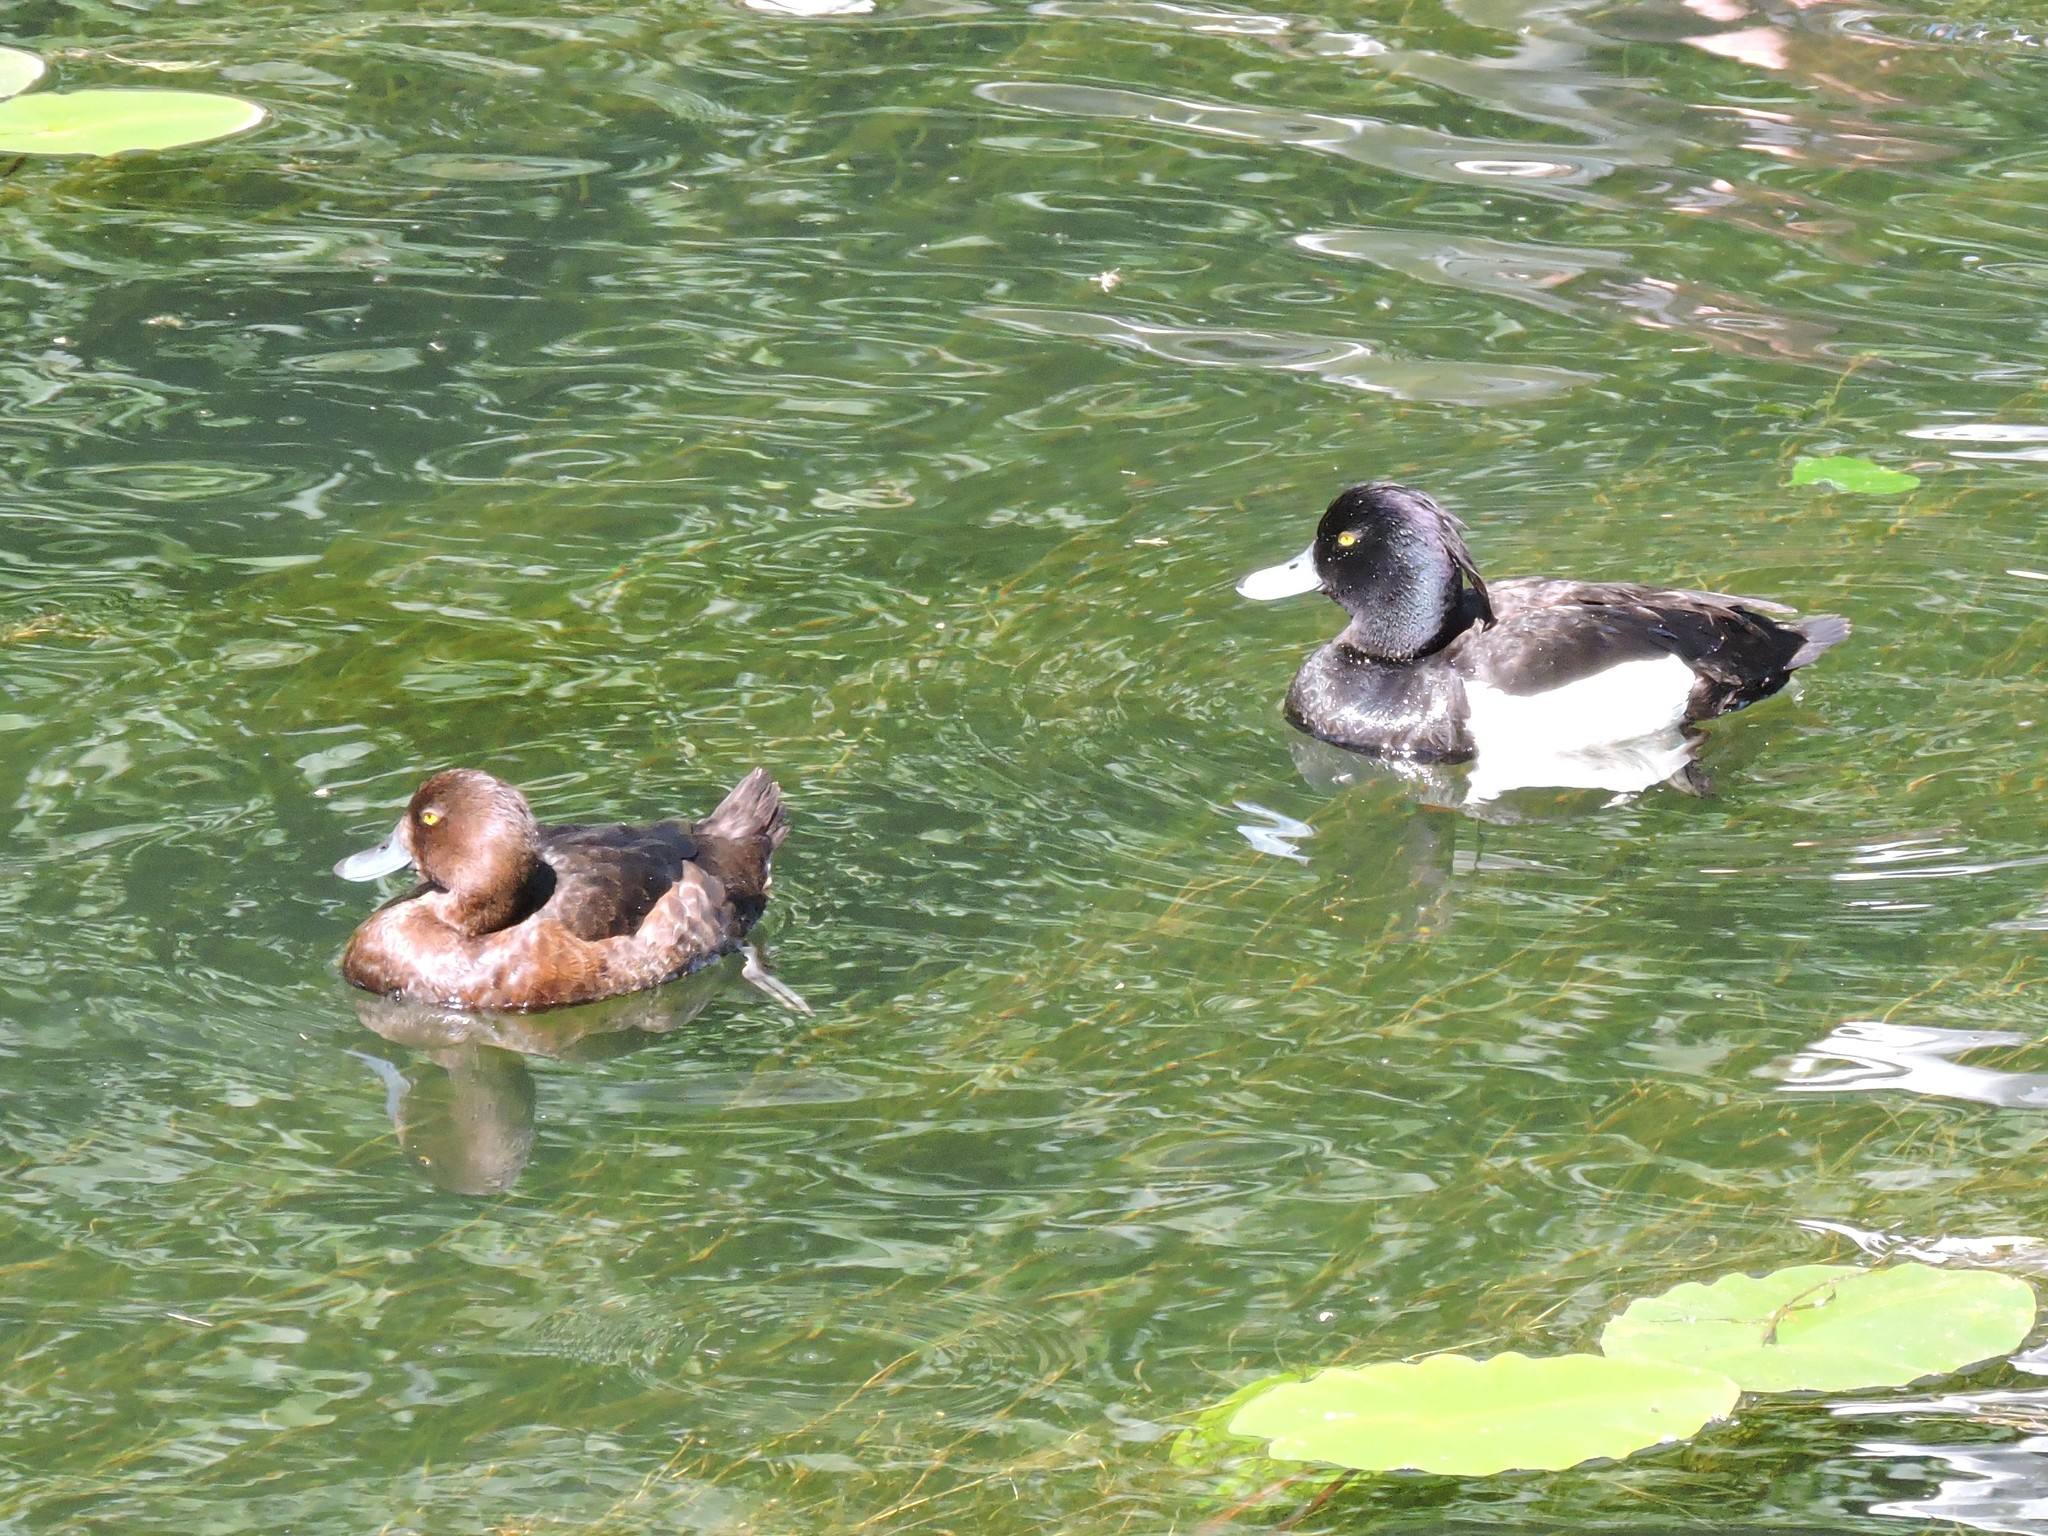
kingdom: Animalia
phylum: Chordata
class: Aves
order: Anseriformes
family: Anatidae
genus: Aythya
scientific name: Aythya fuligula
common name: Tufted duck
